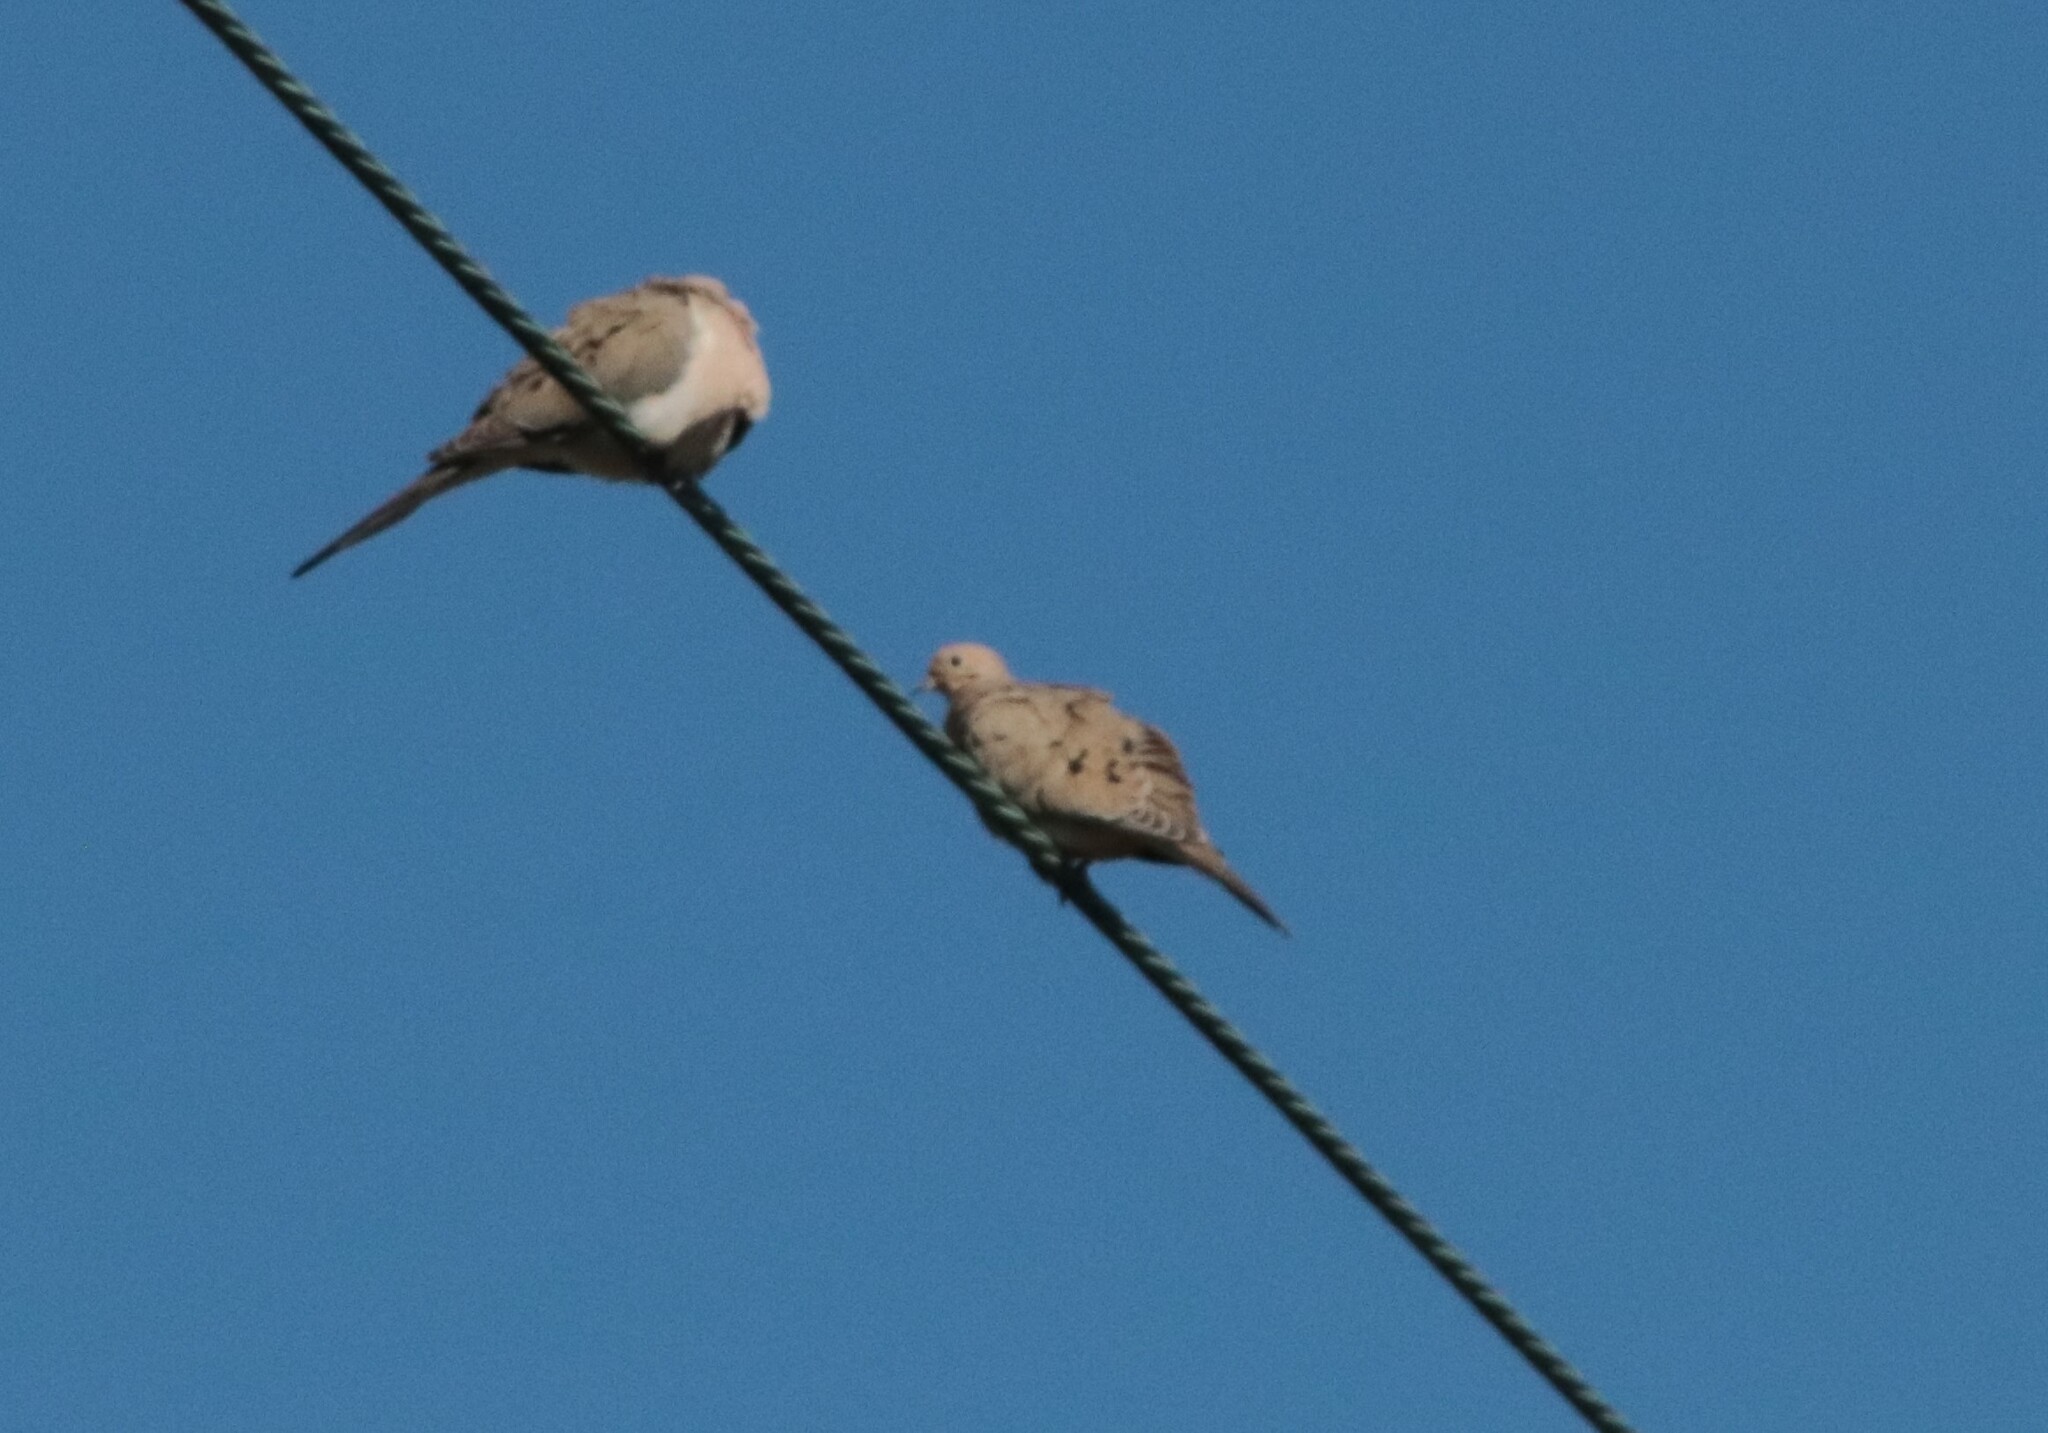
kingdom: Animalia
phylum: Chordata
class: Aves
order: Columbiformes
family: Columbidae
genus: Zenaida
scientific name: Zenaida macroura
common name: Mourning dove
